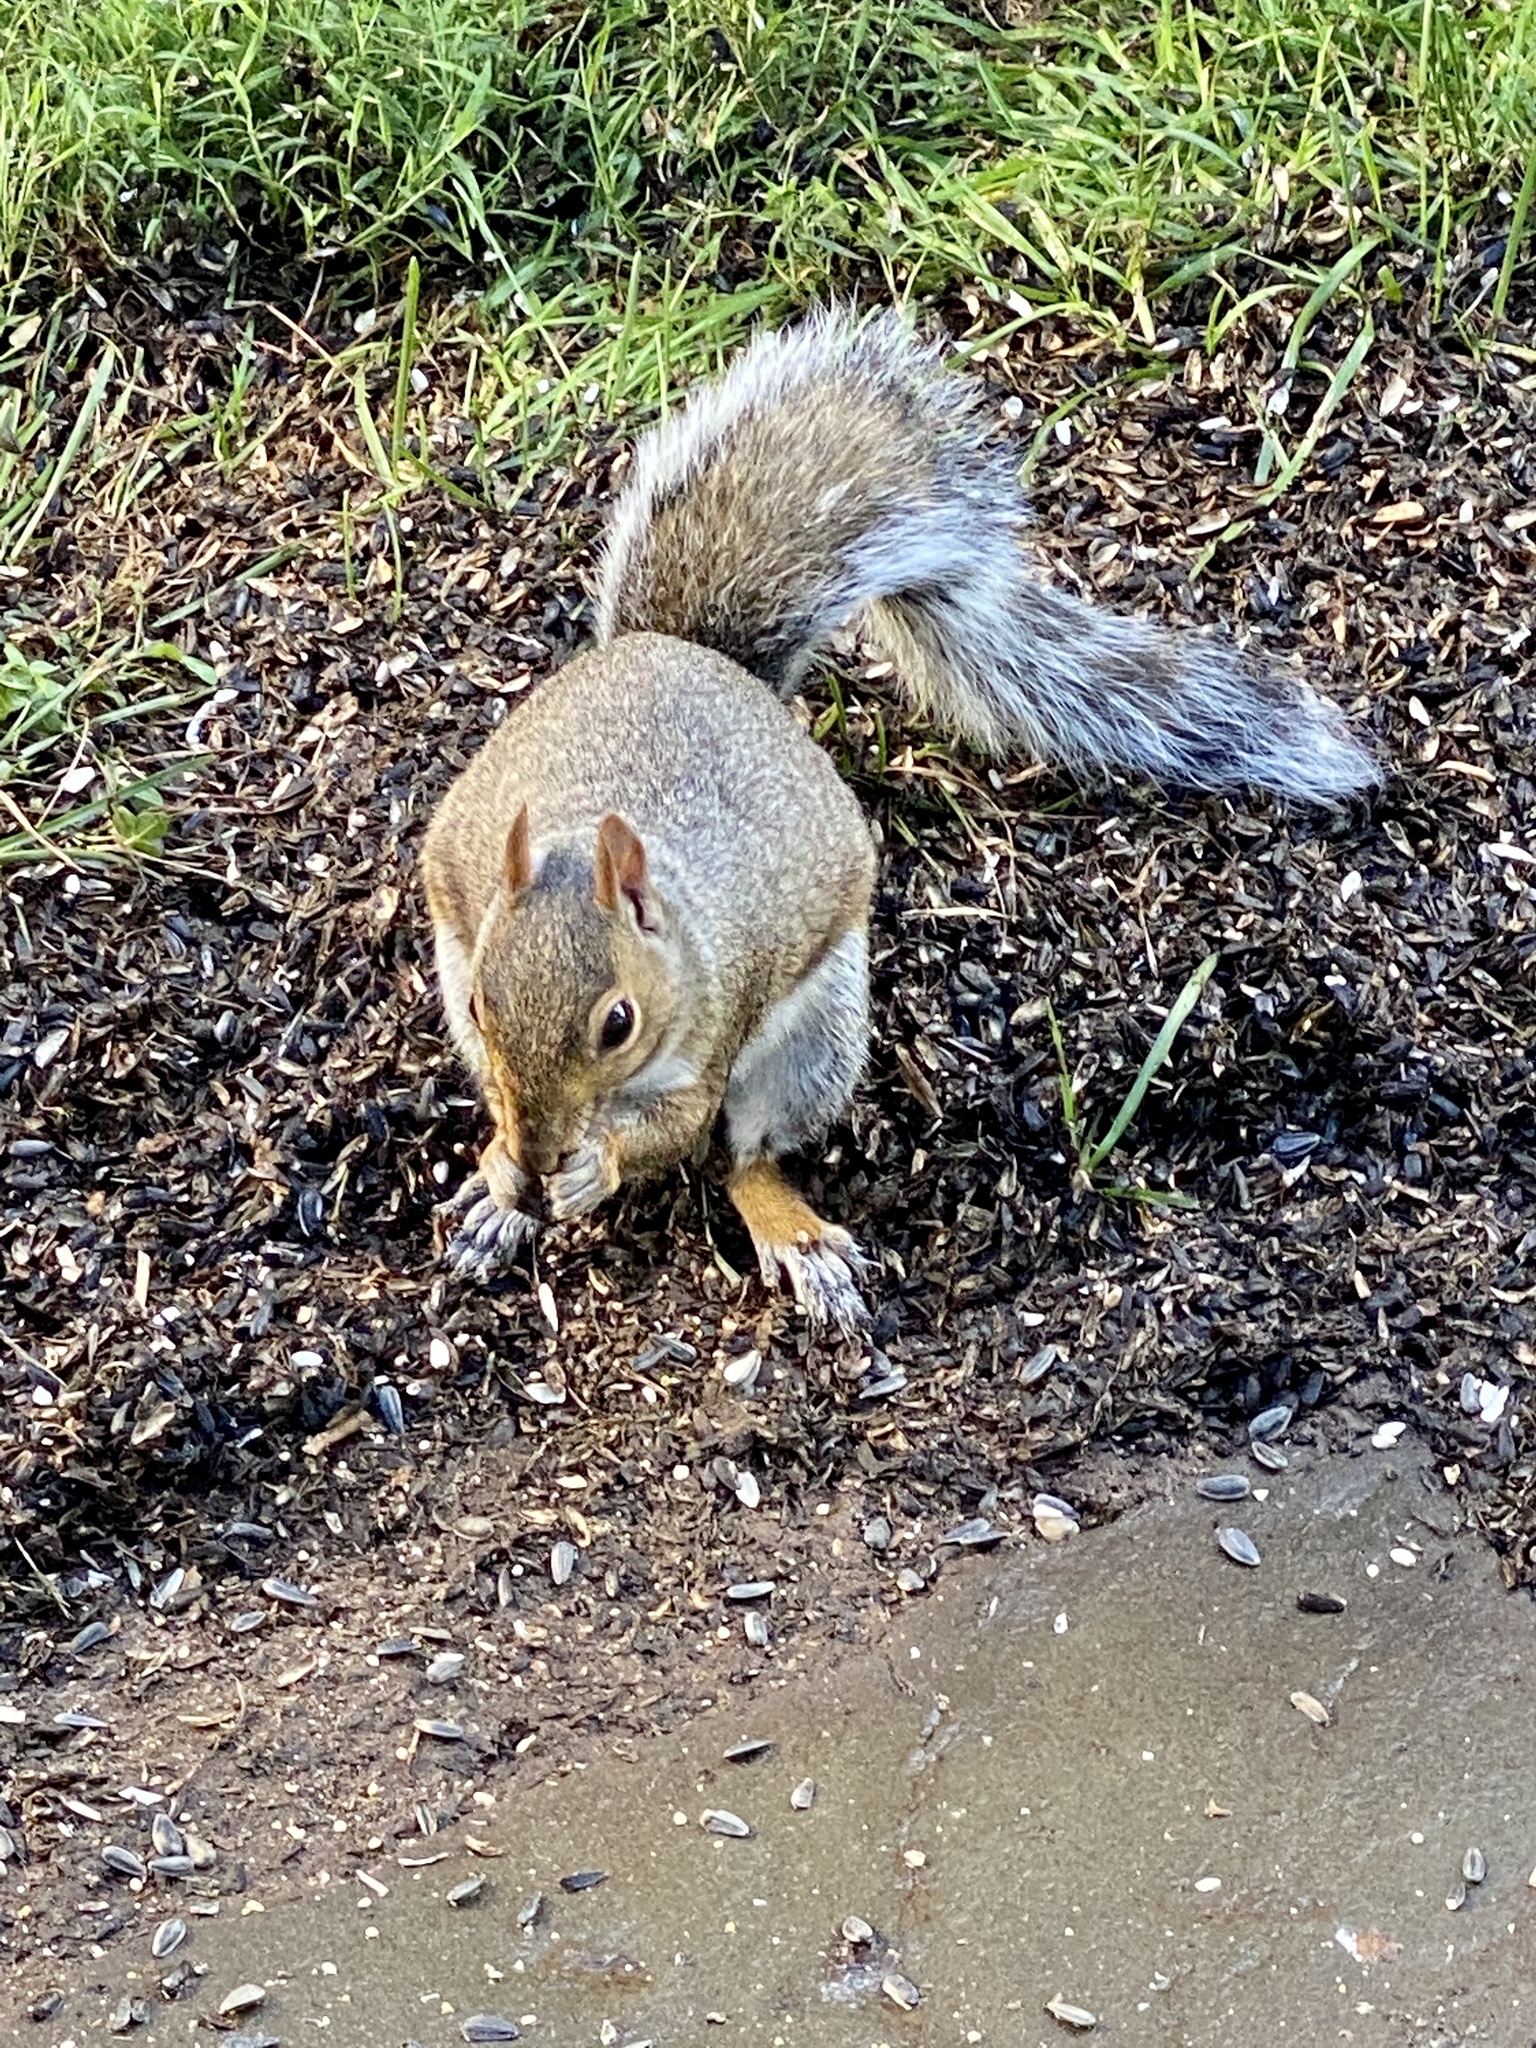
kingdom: Animalia
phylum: Chordata
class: Mammalia
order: Rodentia
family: Sciuridae
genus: Sciurus
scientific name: Sciurus carolinensis
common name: Eastern gray squirrel
